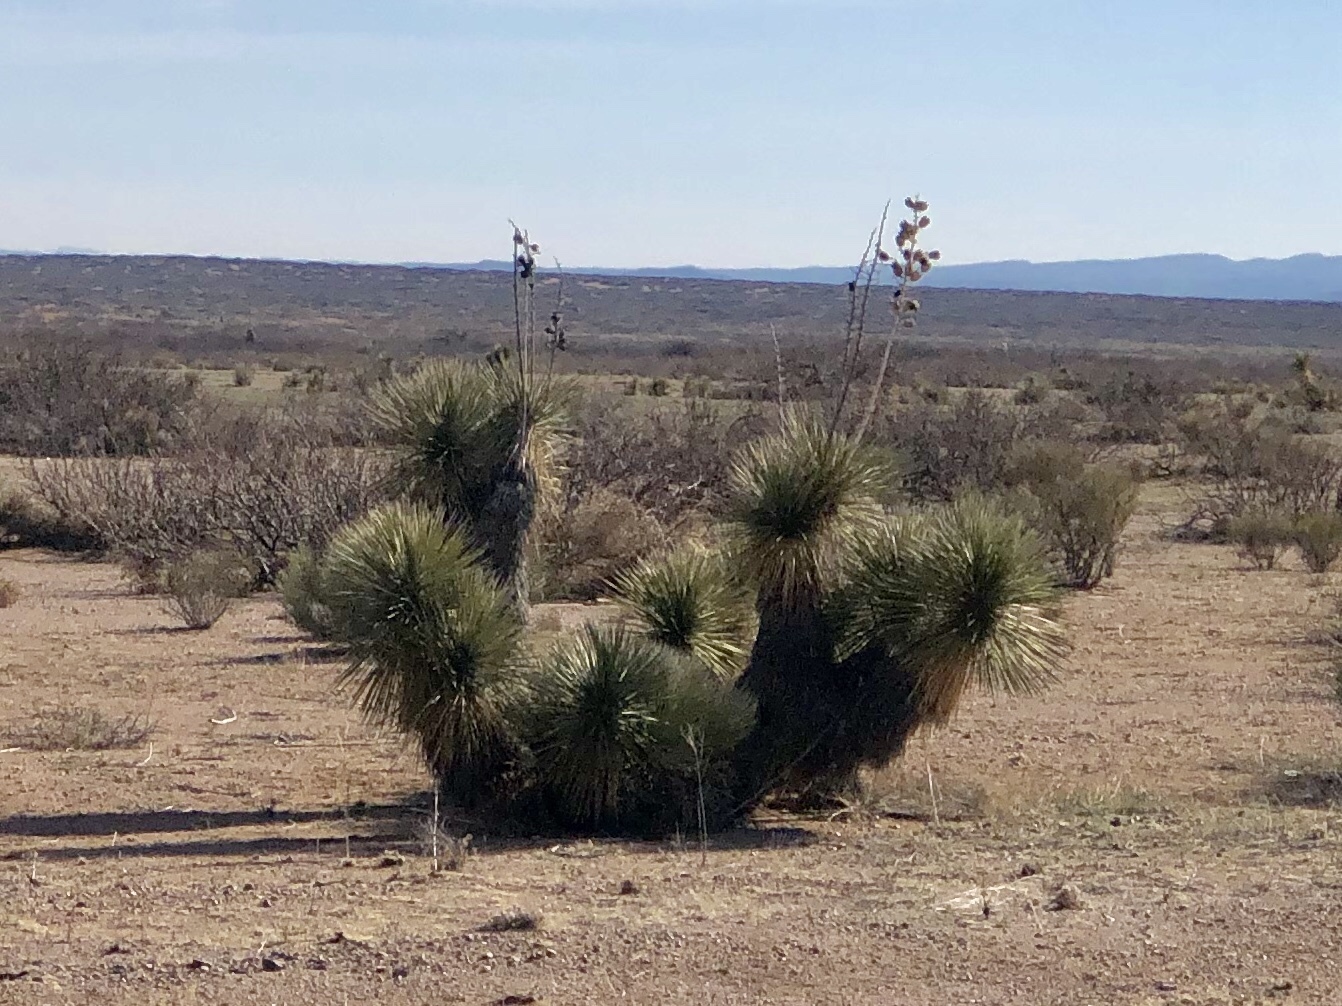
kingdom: Plantae
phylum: Tracheophyta
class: Liliopsida
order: Asparagales
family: Asparagaceae
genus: Yucca
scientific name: Yucca elata
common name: Palmella
